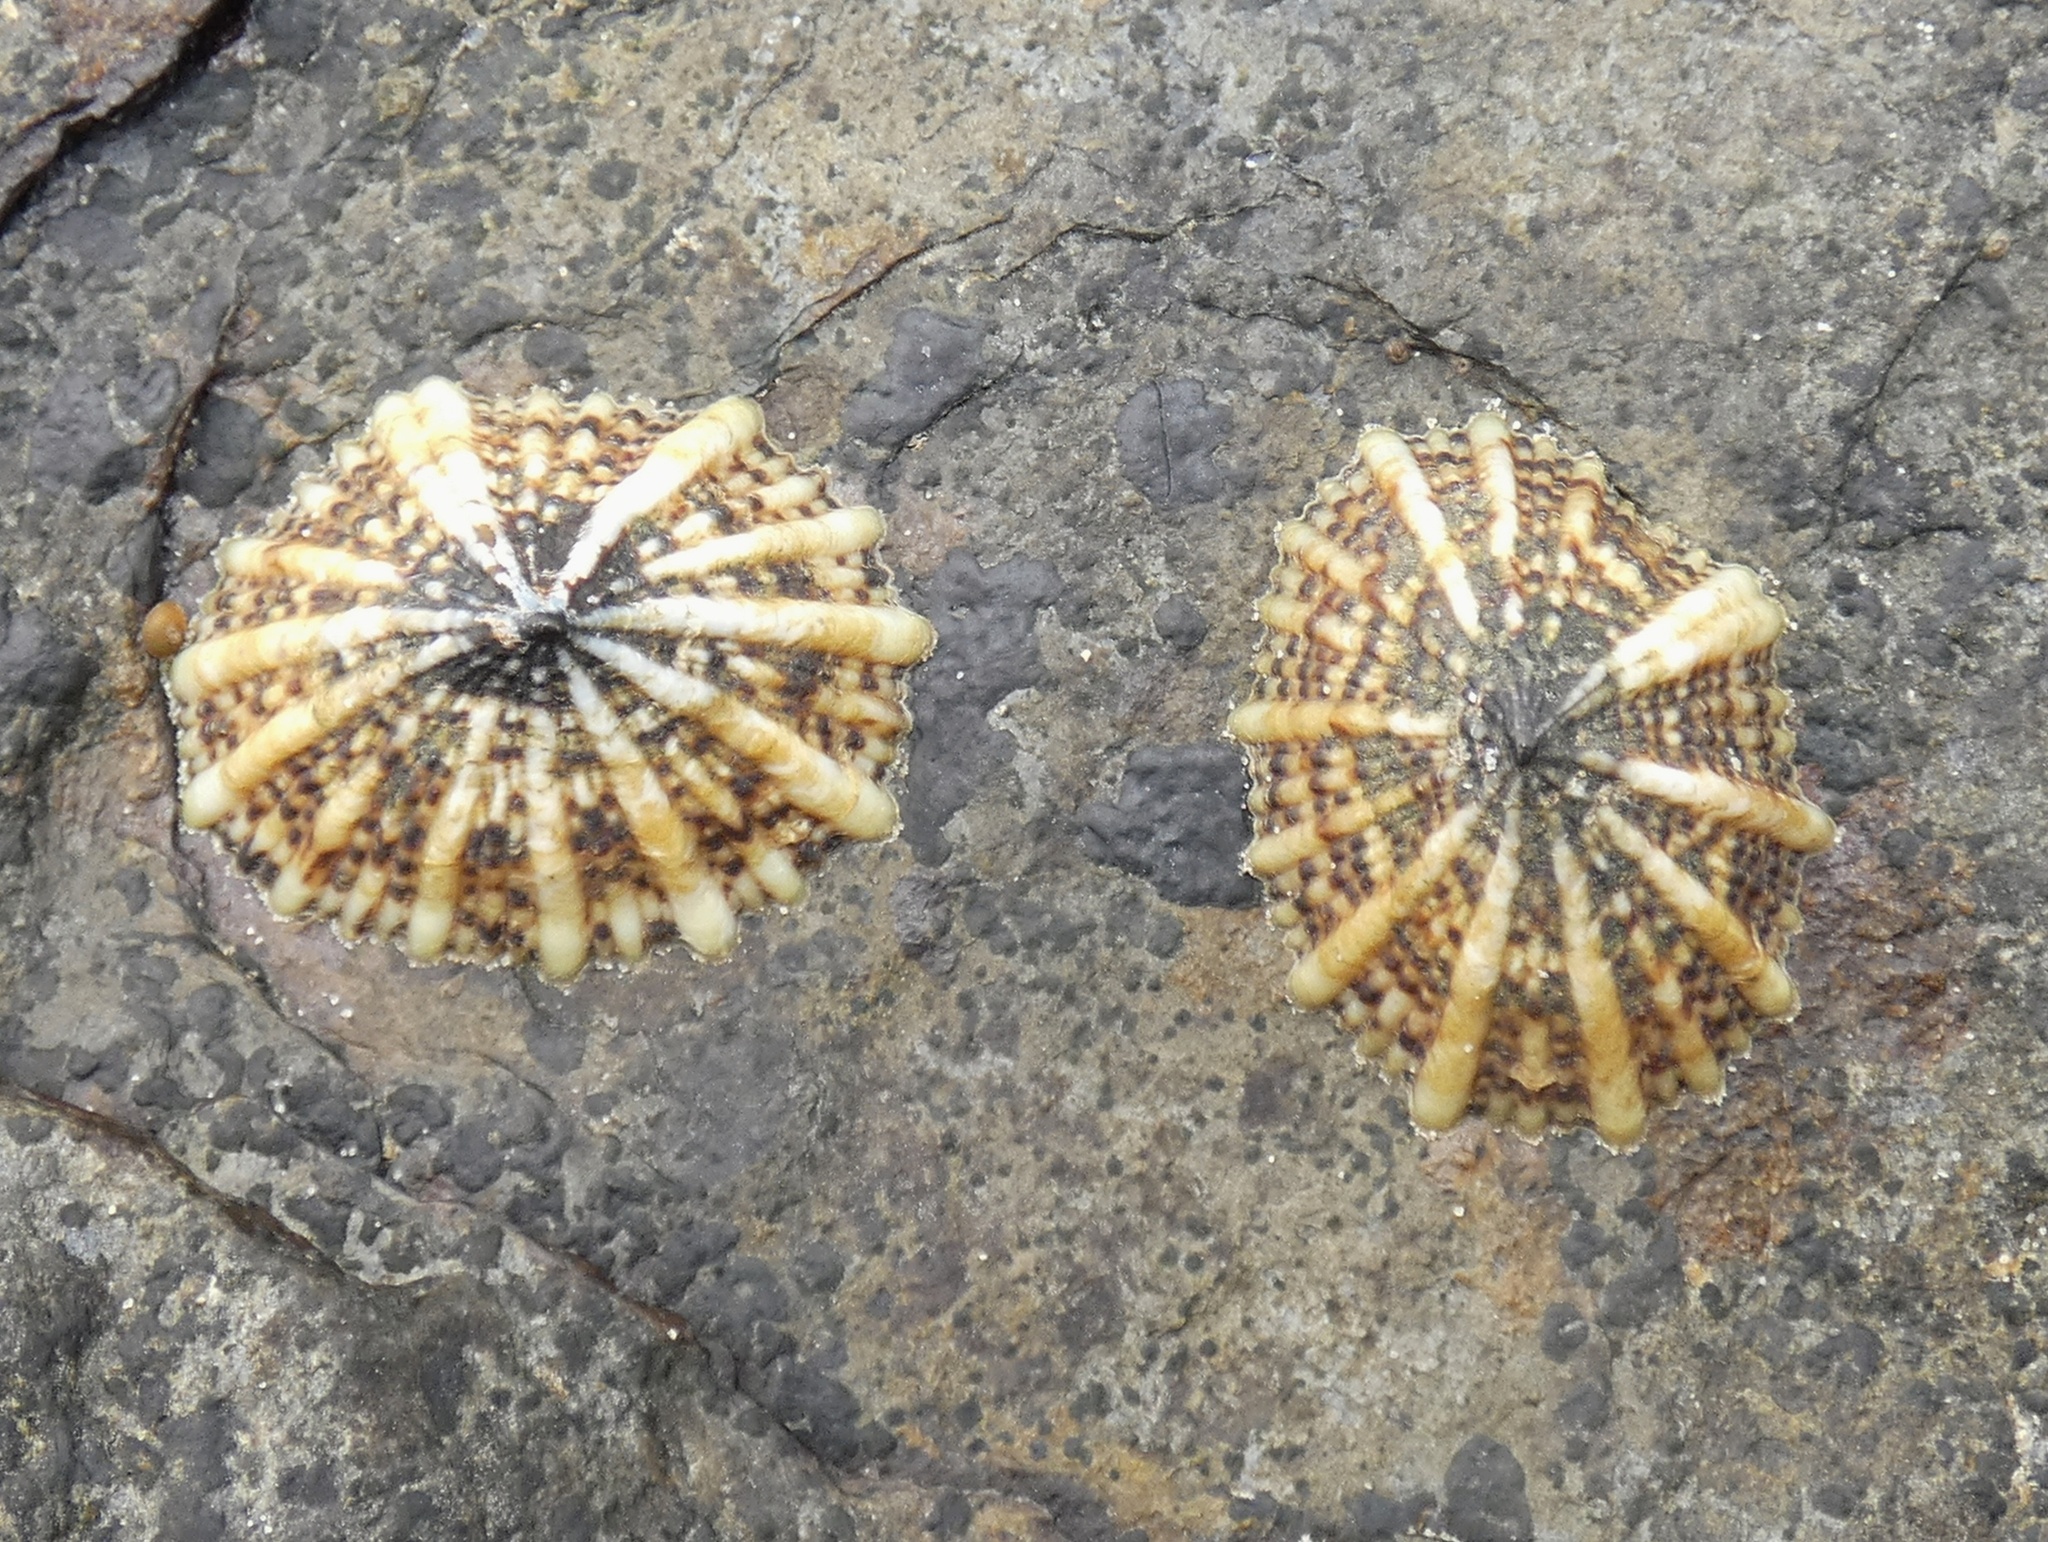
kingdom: Animalia
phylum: Mollusca
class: Gastropoda
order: Siphonariida
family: Siphonariidae
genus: Siphonaria
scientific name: Siphonaria laciniosa
